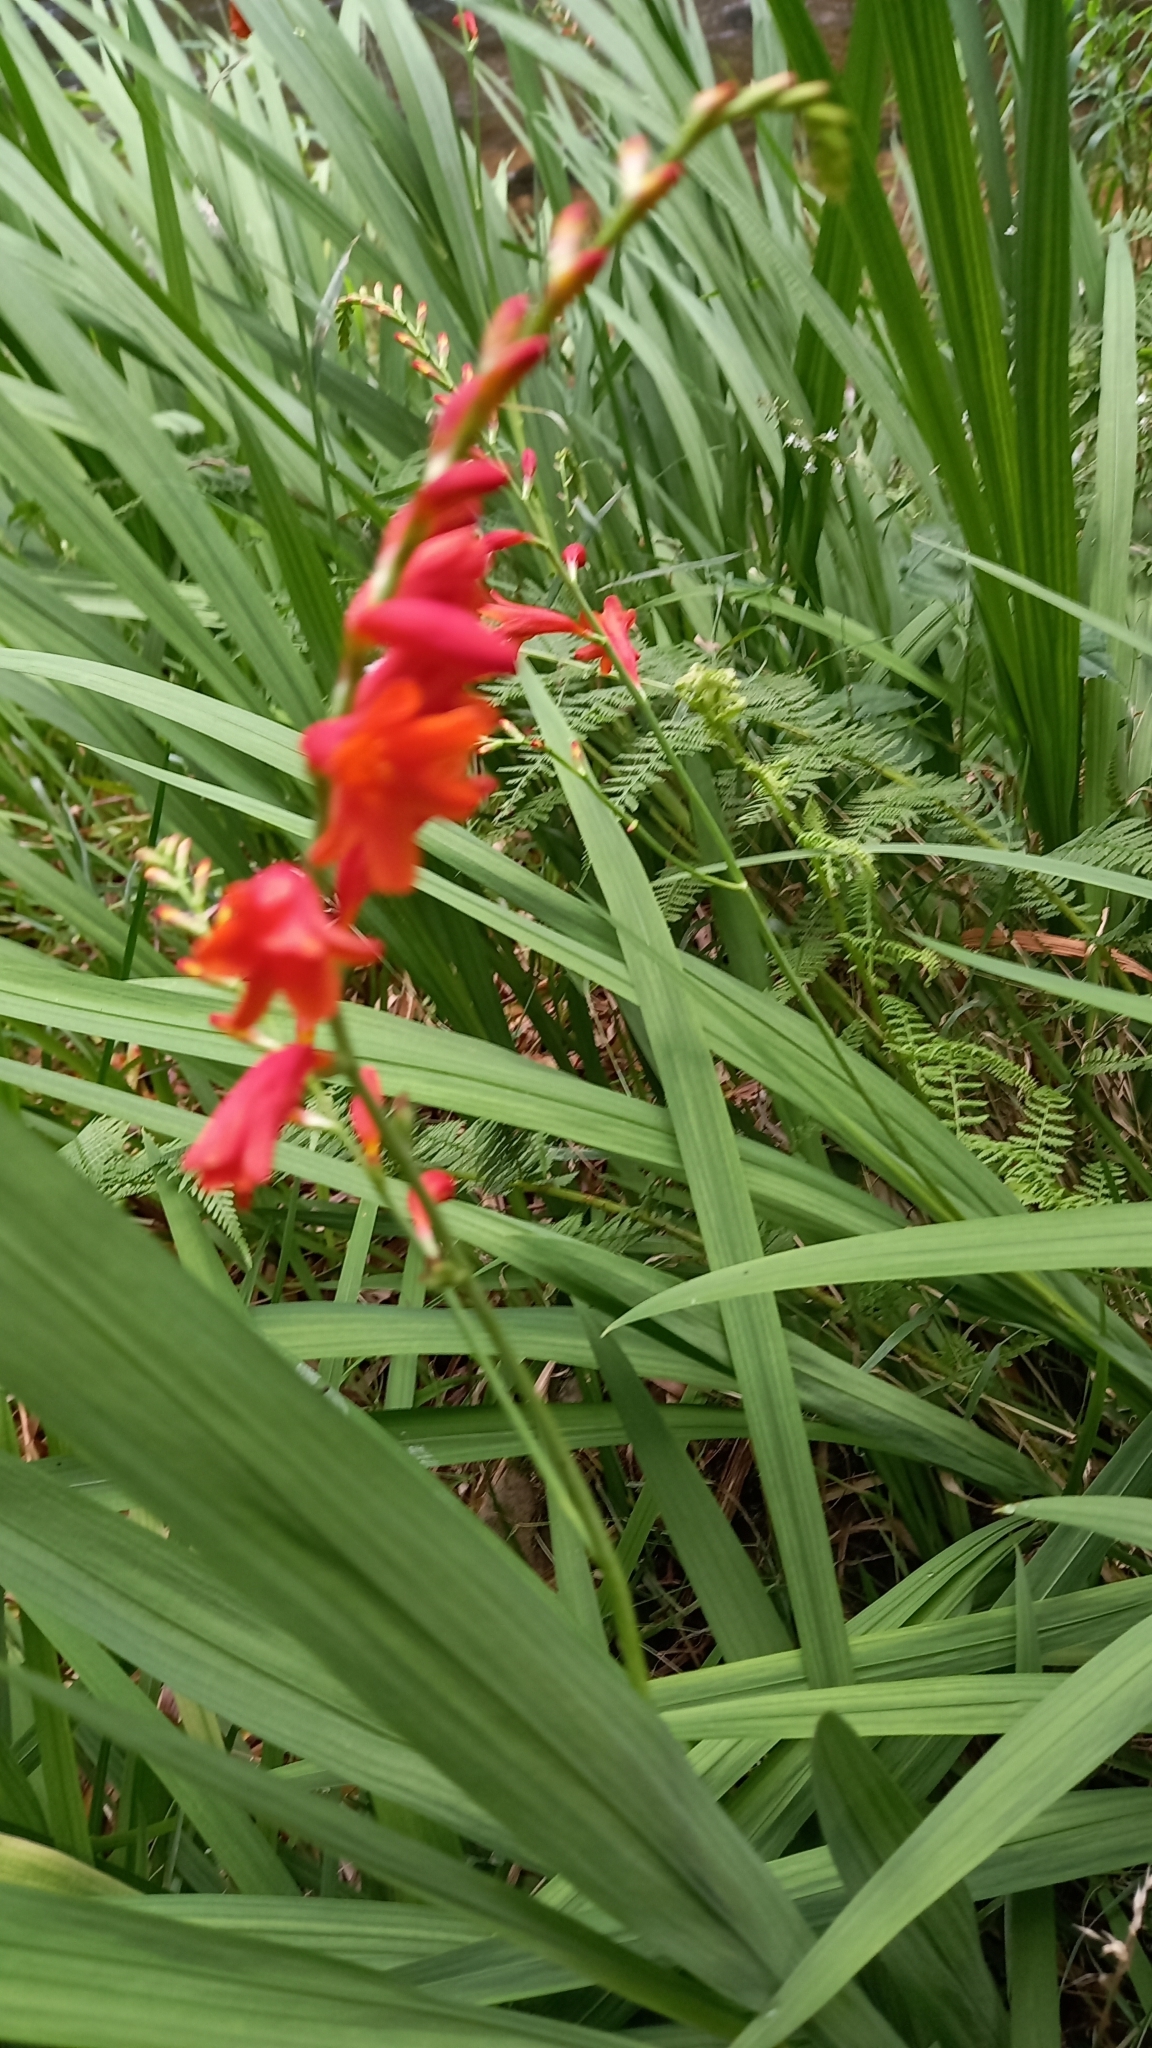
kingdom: Plantae
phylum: Tracheophyta
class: Liliopsida
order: Asparagales
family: Iridaceae
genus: Crocosmia
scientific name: Crocosmia pottsii
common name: Pott's montbretia
